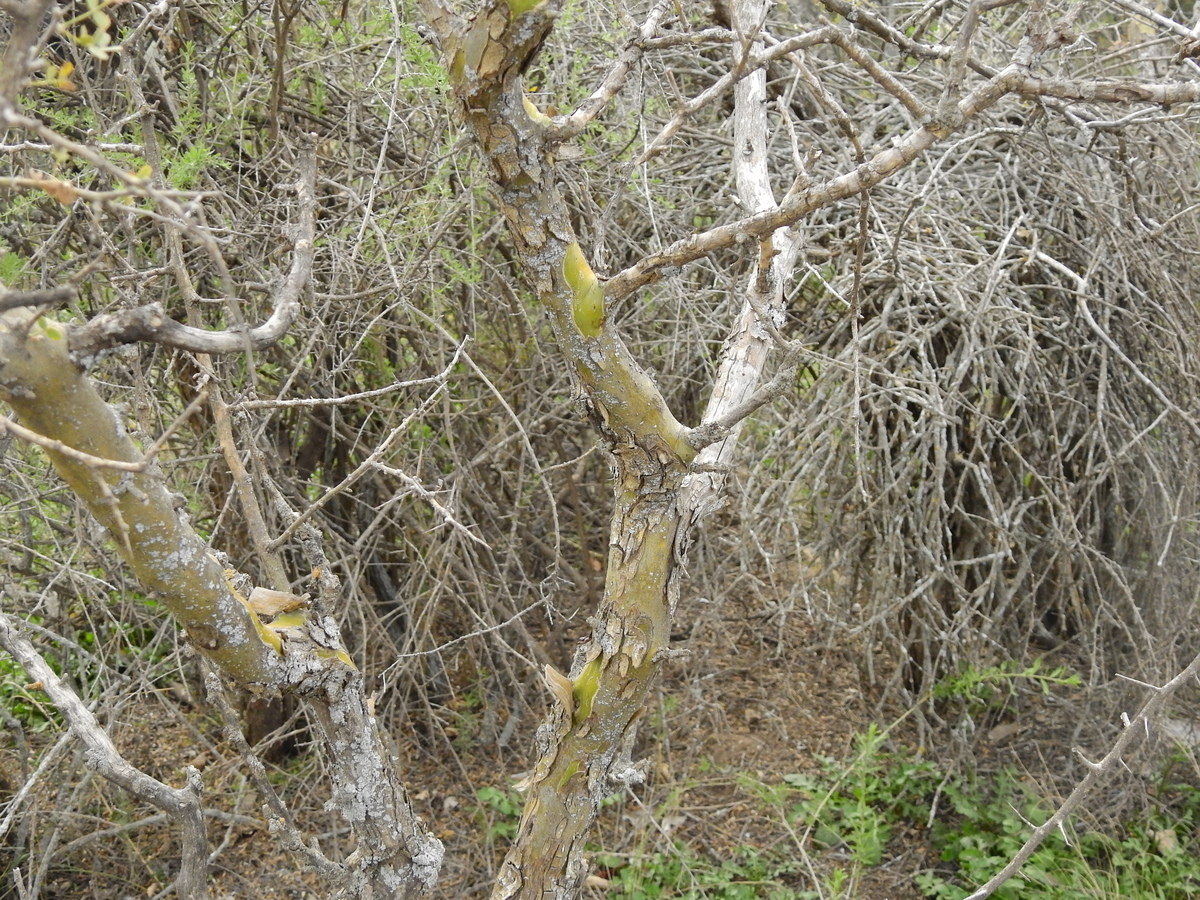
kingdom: Plantae
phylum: Tracheophyta
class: Magnoliopsida
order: Fabales
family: Fabaceae
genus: Geoffroea
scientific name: Geoffroea decorticans
